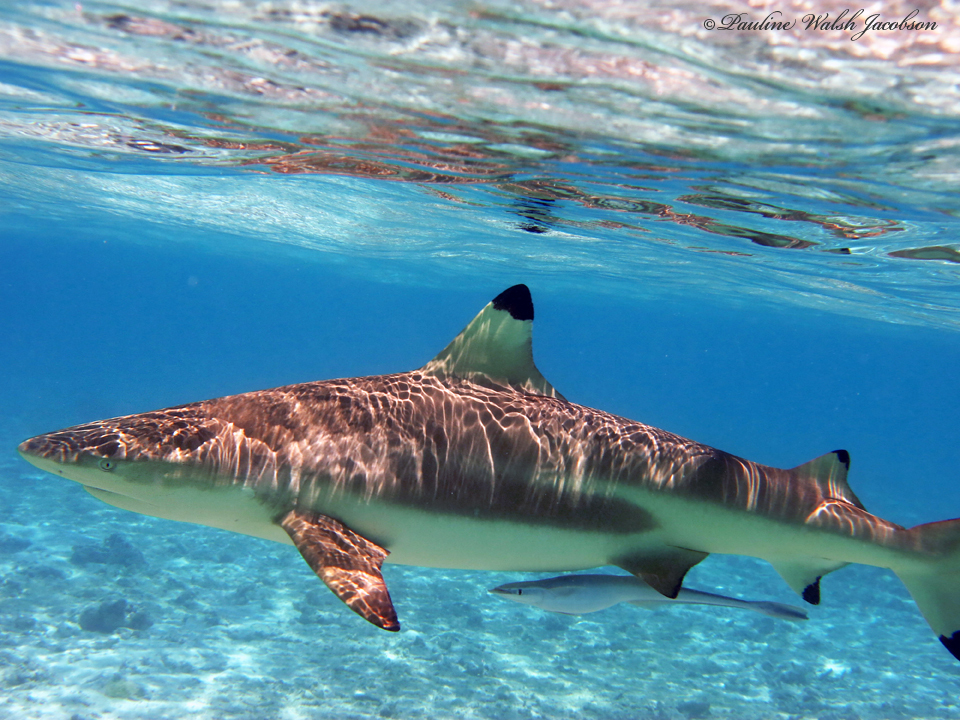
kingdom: Animalia
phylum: Chordata
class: Elasmobranchii
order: Carcharhiniformes
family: Carcharhinidae
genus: Carcharhinus
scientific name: Carcharhinus melanopterus
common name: Blacktip reef shark
